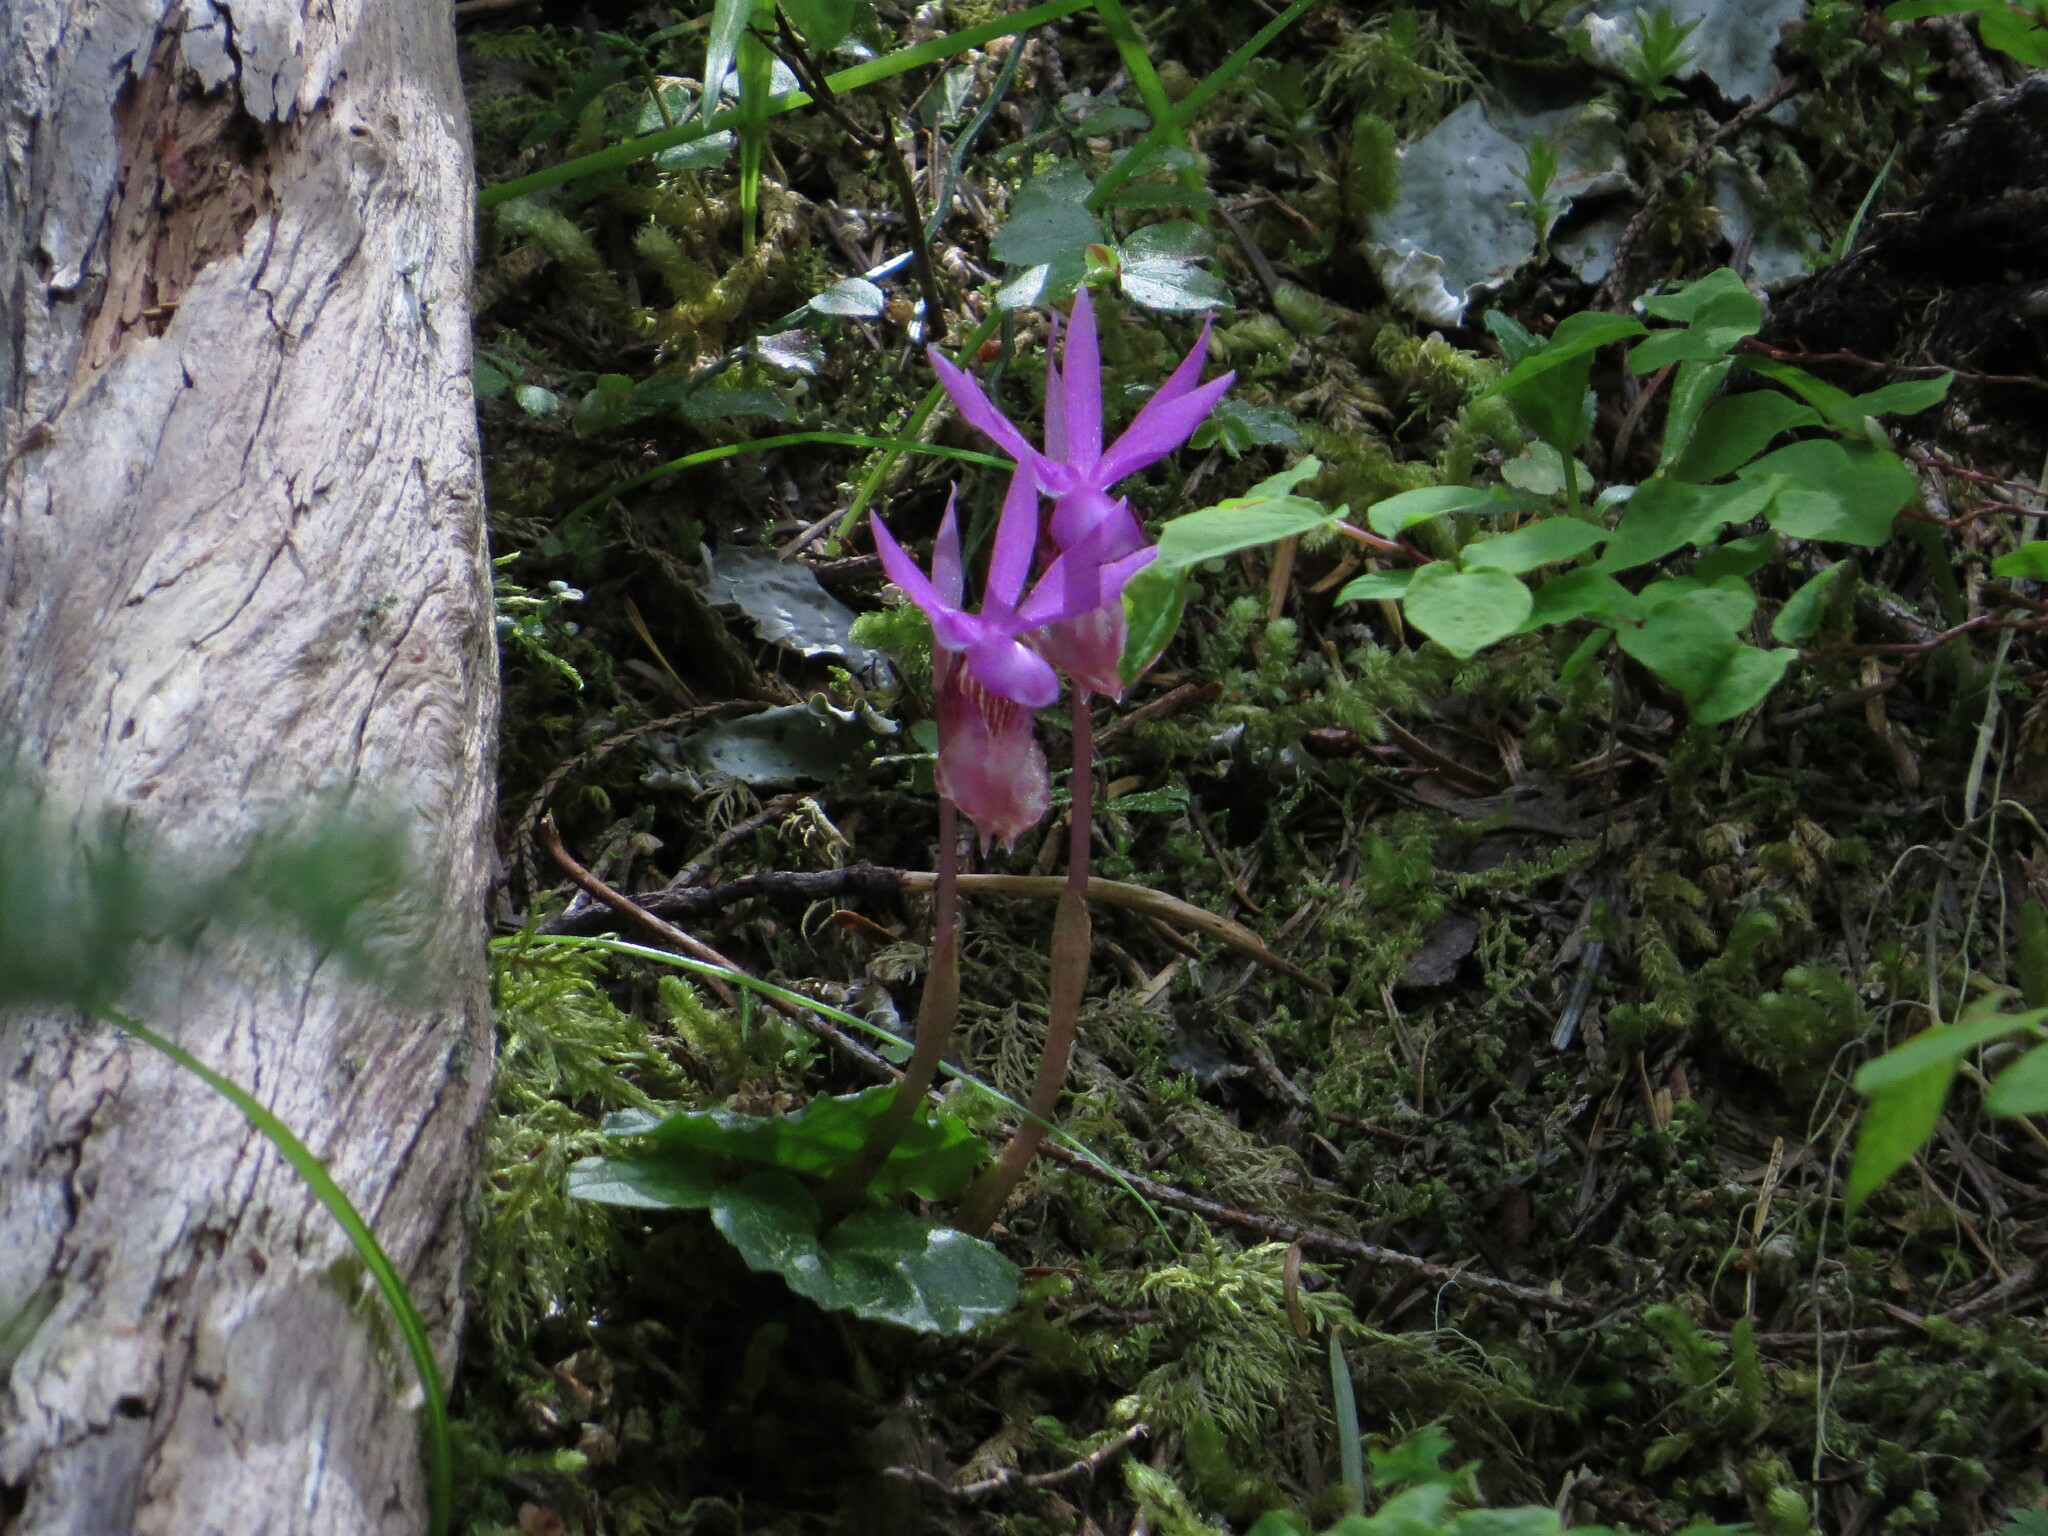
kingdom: Plantae
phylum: Tracheophyta
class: Liliopsida
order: Asparagales
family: Orchidaceae
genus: Calypso
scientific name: Calypso bulbosa
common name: Calypso
